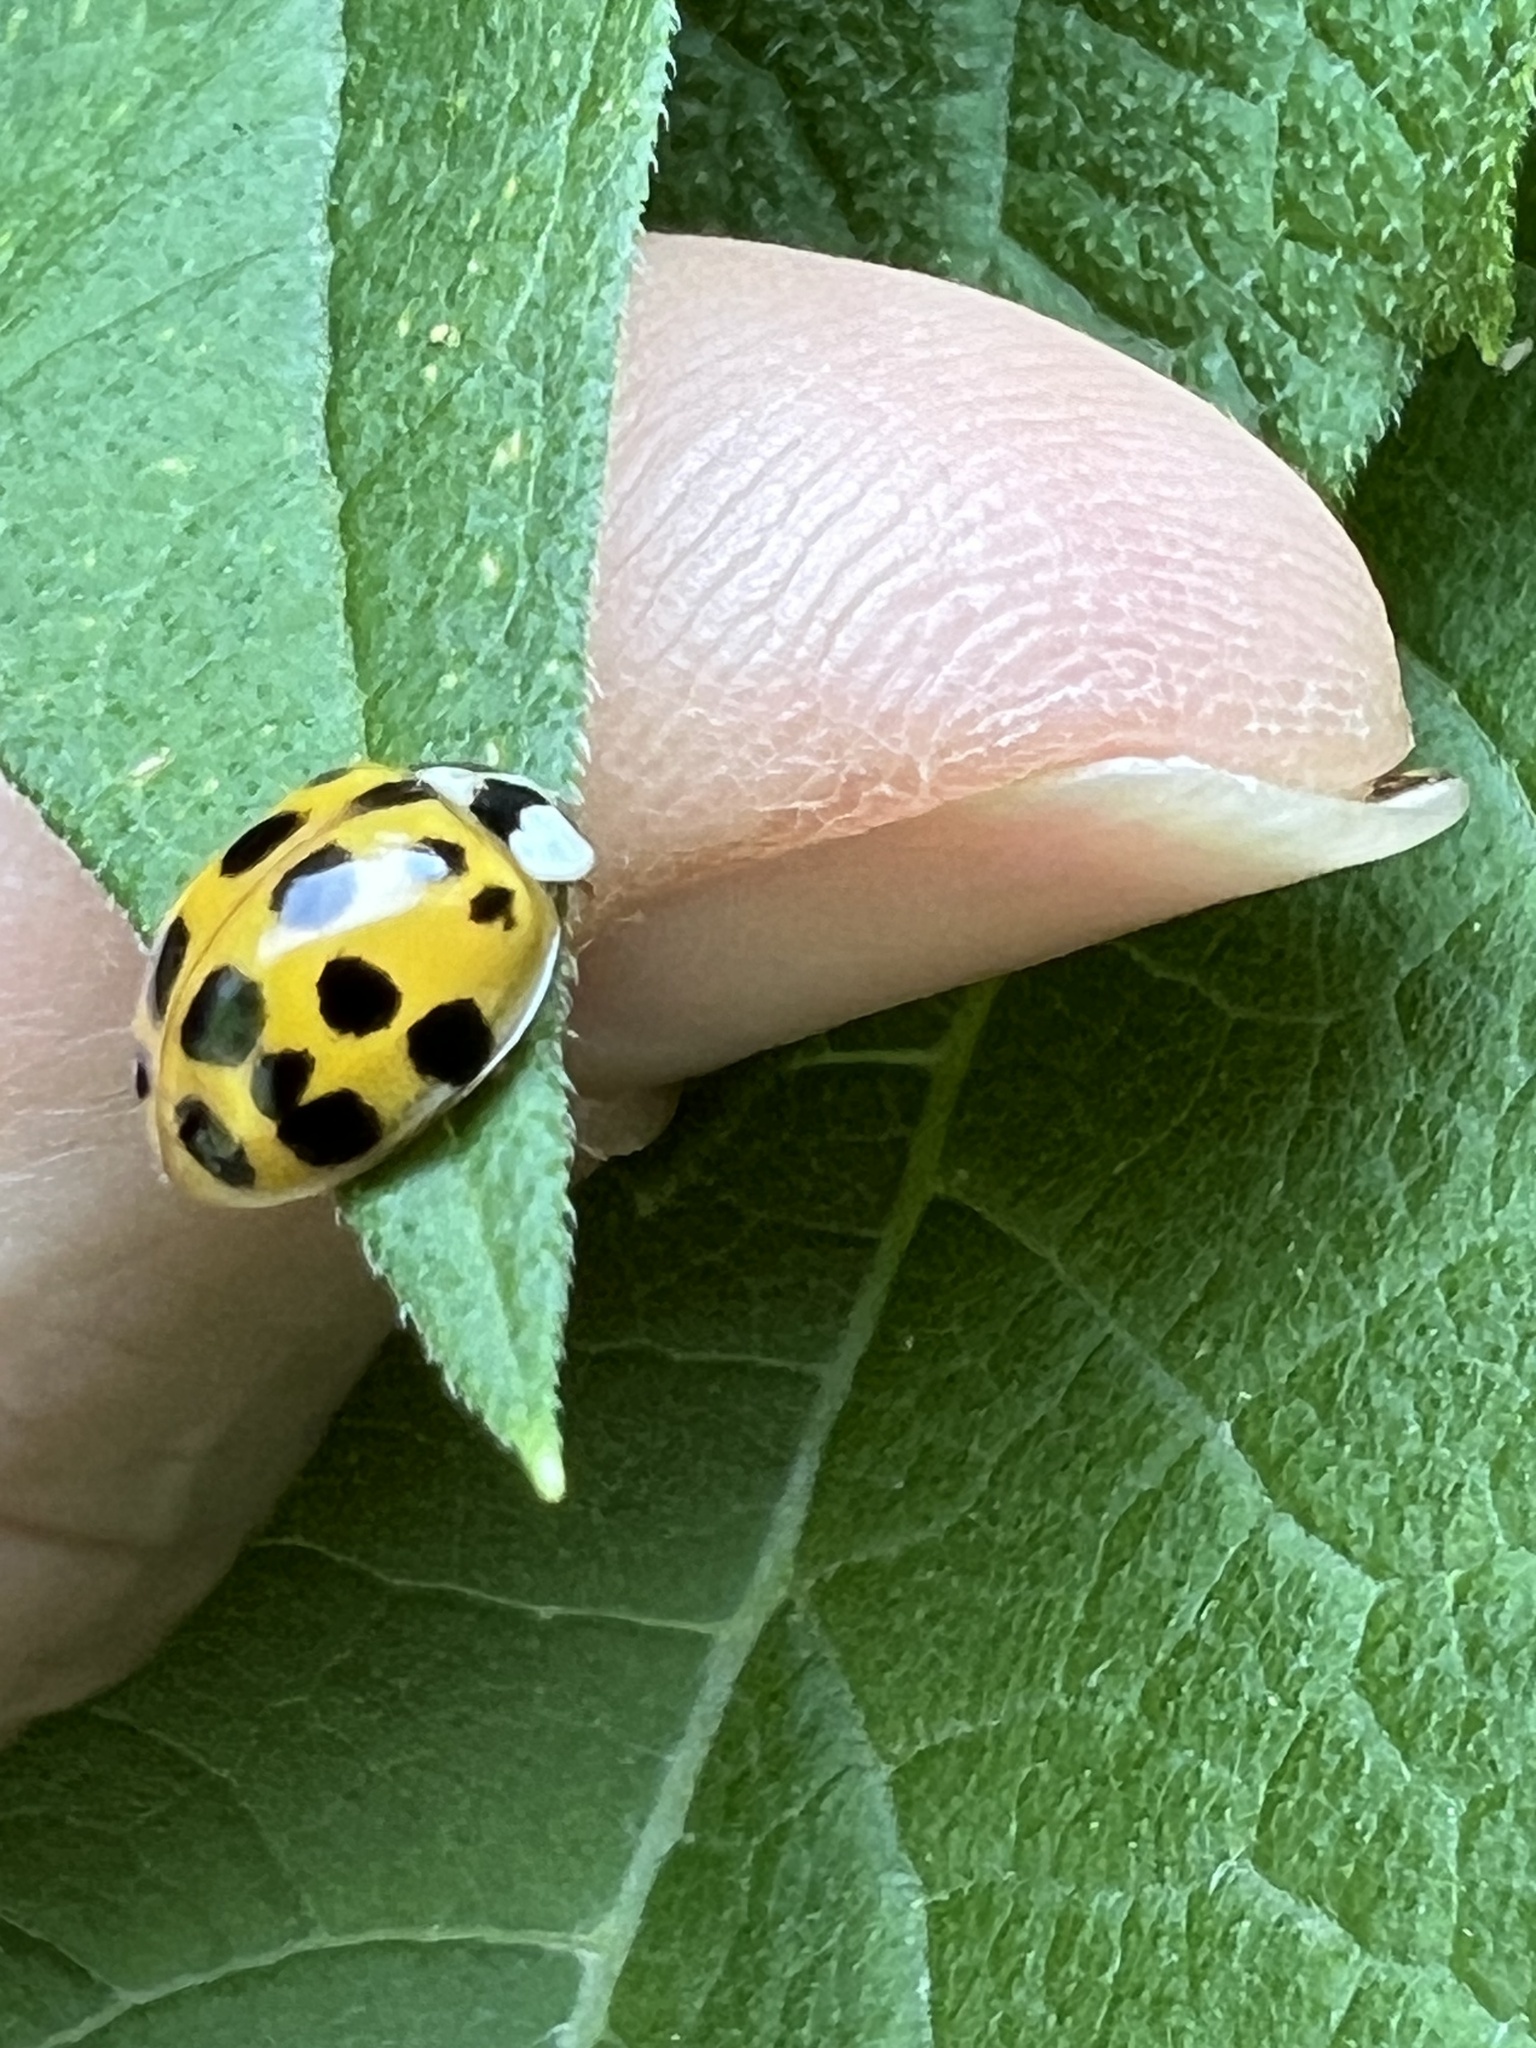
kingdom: Animalia
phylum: Arthropoda
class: Insecta
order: Coleoptera
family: Coccinellidae
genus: Harmonia
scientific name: Harmonia axyridis
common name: Harlequin ladybird
